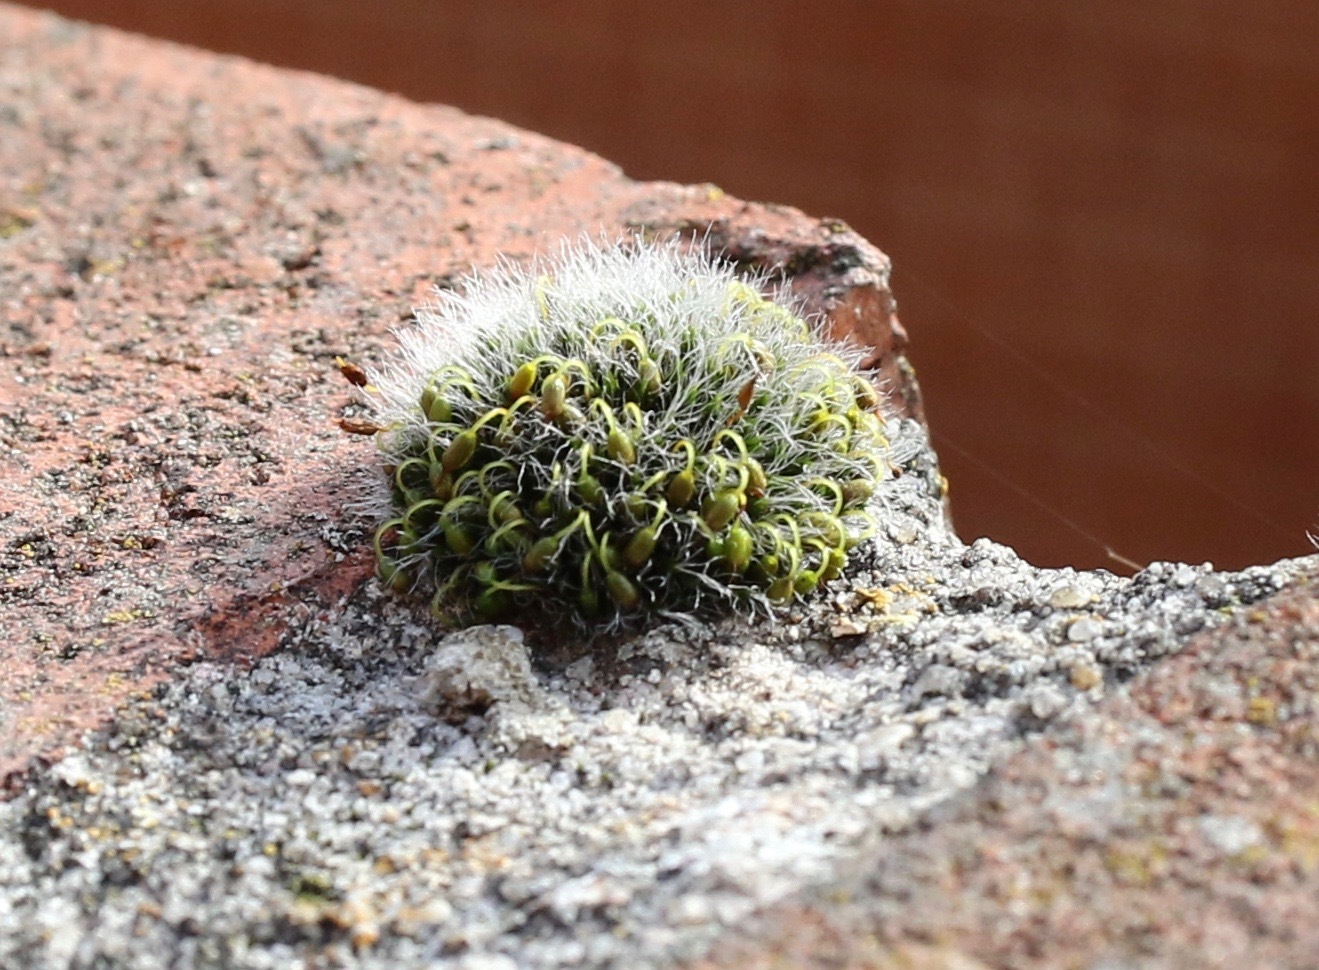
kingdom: Plantae
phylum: Bryophyta
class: Bryopsida
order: Grimmiales
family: Grimmiaceae
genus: Grimmia
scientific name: Grimmia pulvinata
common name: Grey-cushioned grimmia
